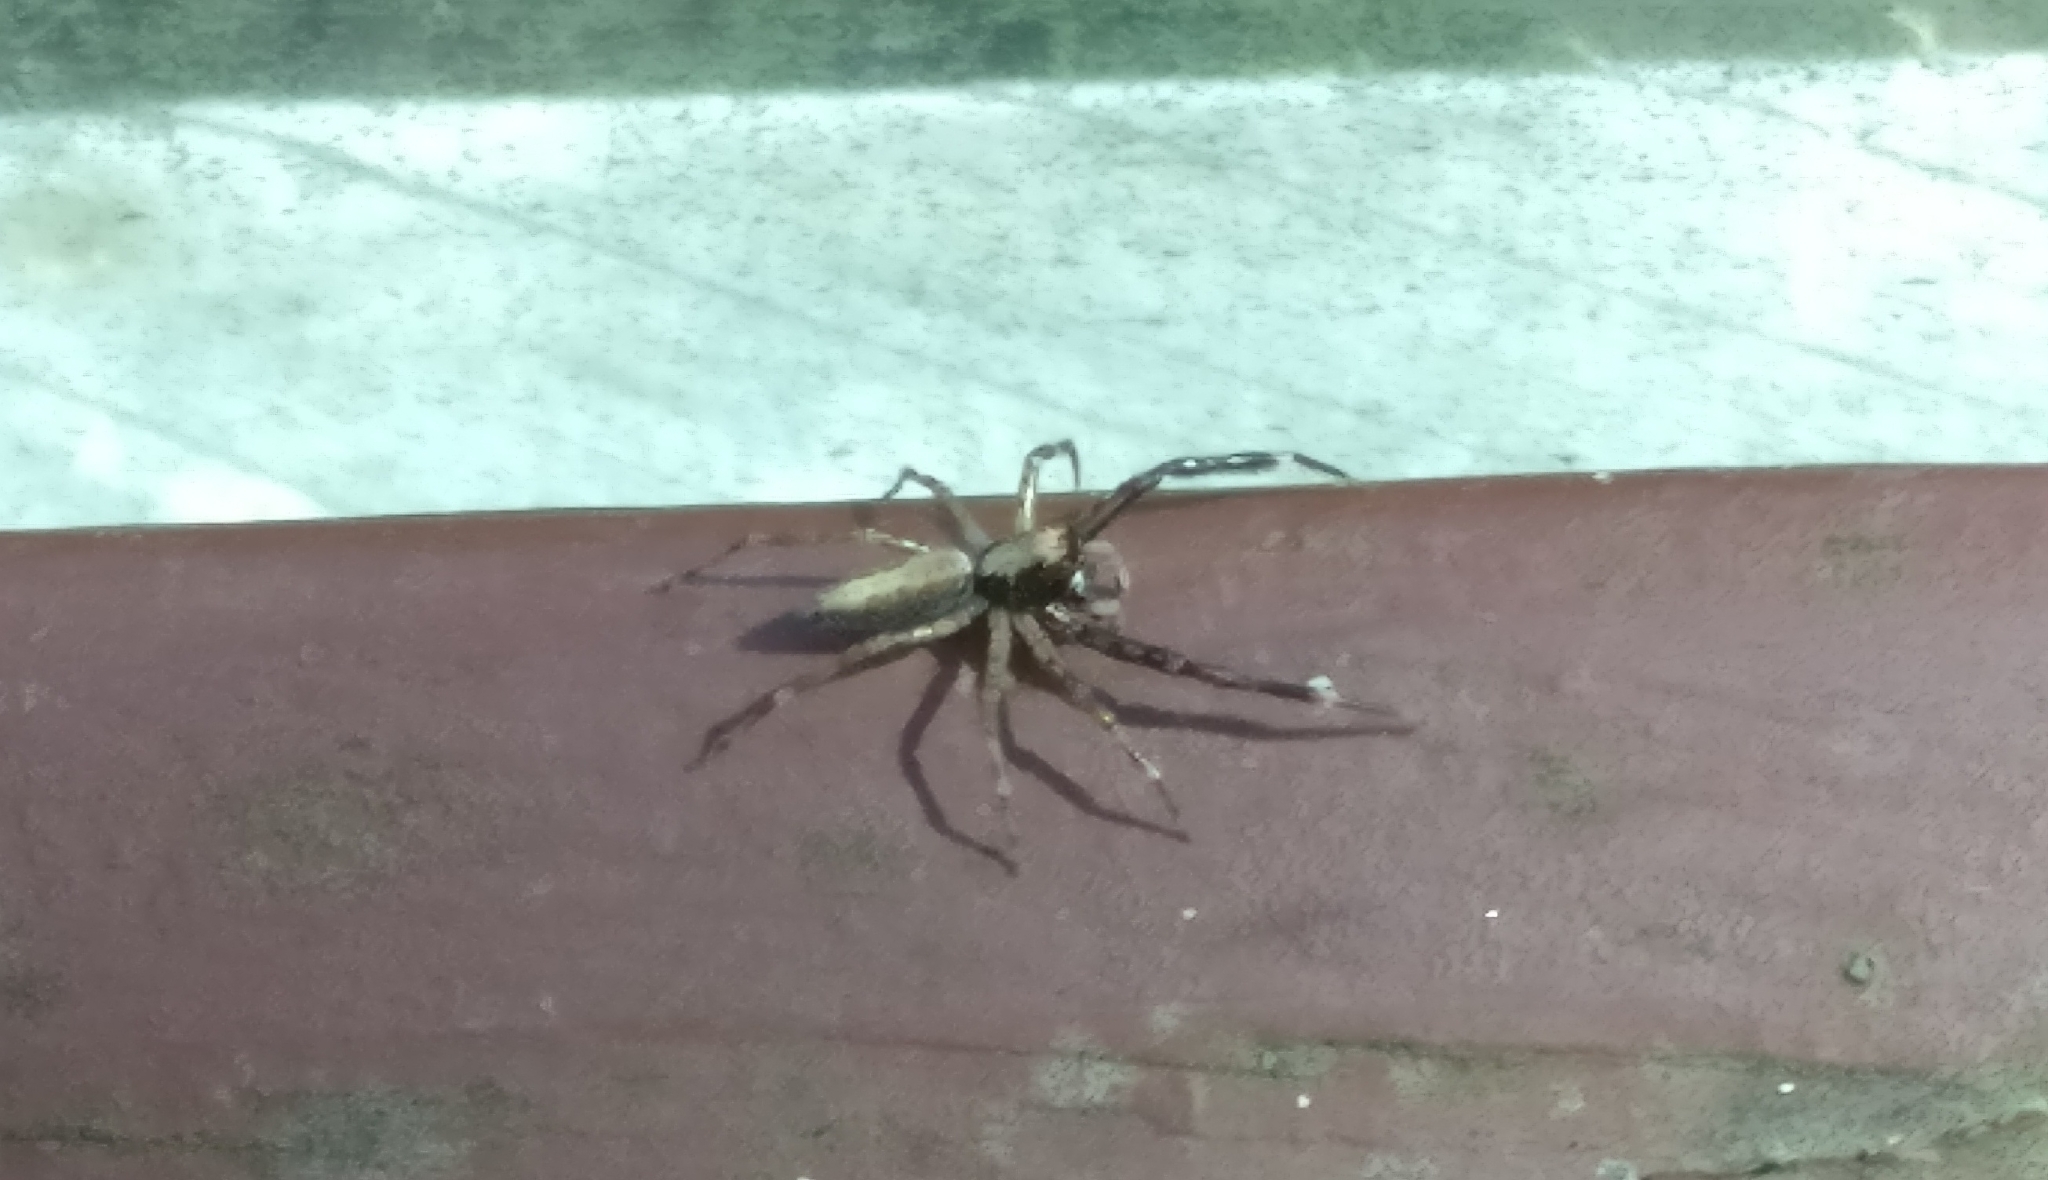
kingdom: Animalia
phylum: Arthropoda
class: Arachnida
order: Araneae
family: Salticidae
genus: Helpis
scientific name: Helpis minitabunda
